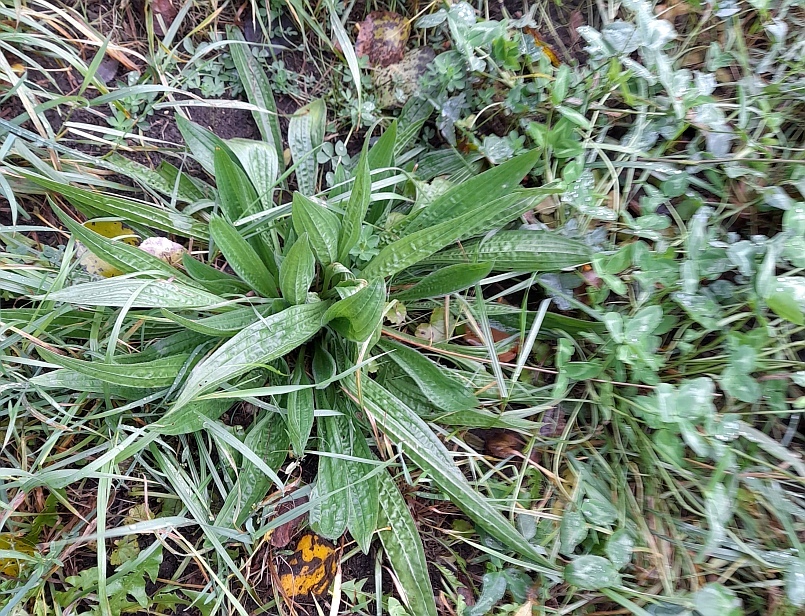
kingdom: Plantae
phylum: Tracheophyta
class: Magnoliopsida
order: Lamiales
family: Plantaginaceae
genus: Plantago
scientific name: Plantago lanceolata
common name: Ribwort plantain
